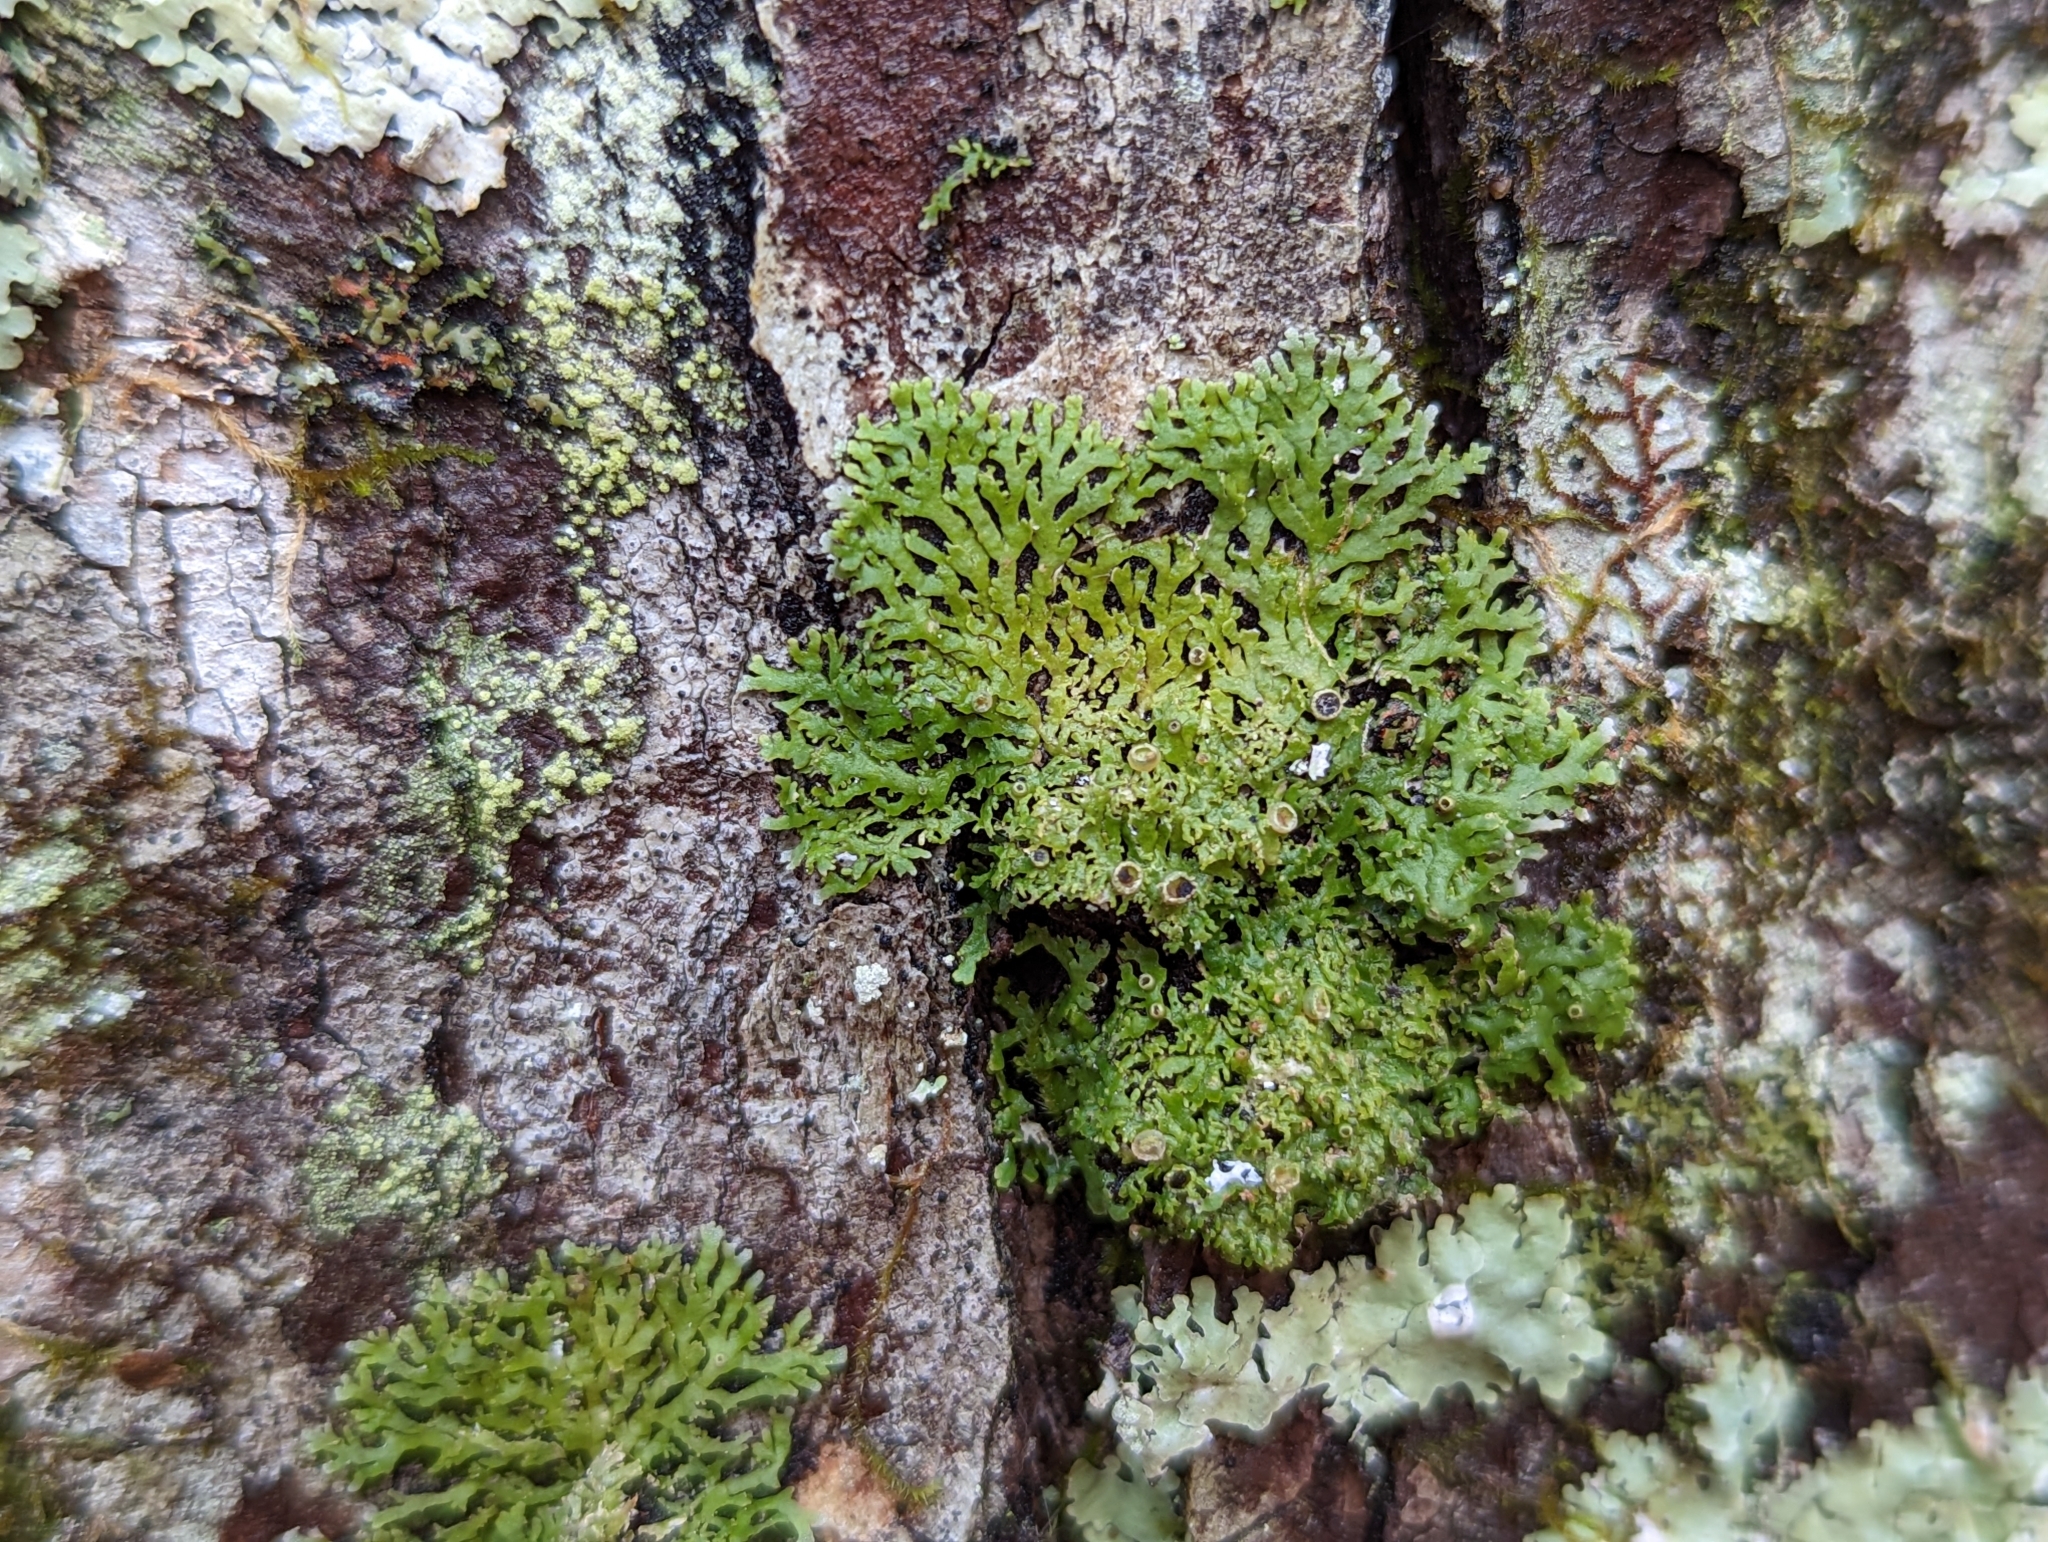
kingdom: Fungi
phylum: Ascomycota
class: Lecanoromycetes
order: Caliciales
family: Physciaceae
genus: Kurokawia
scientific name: Kurokawia palmulata
